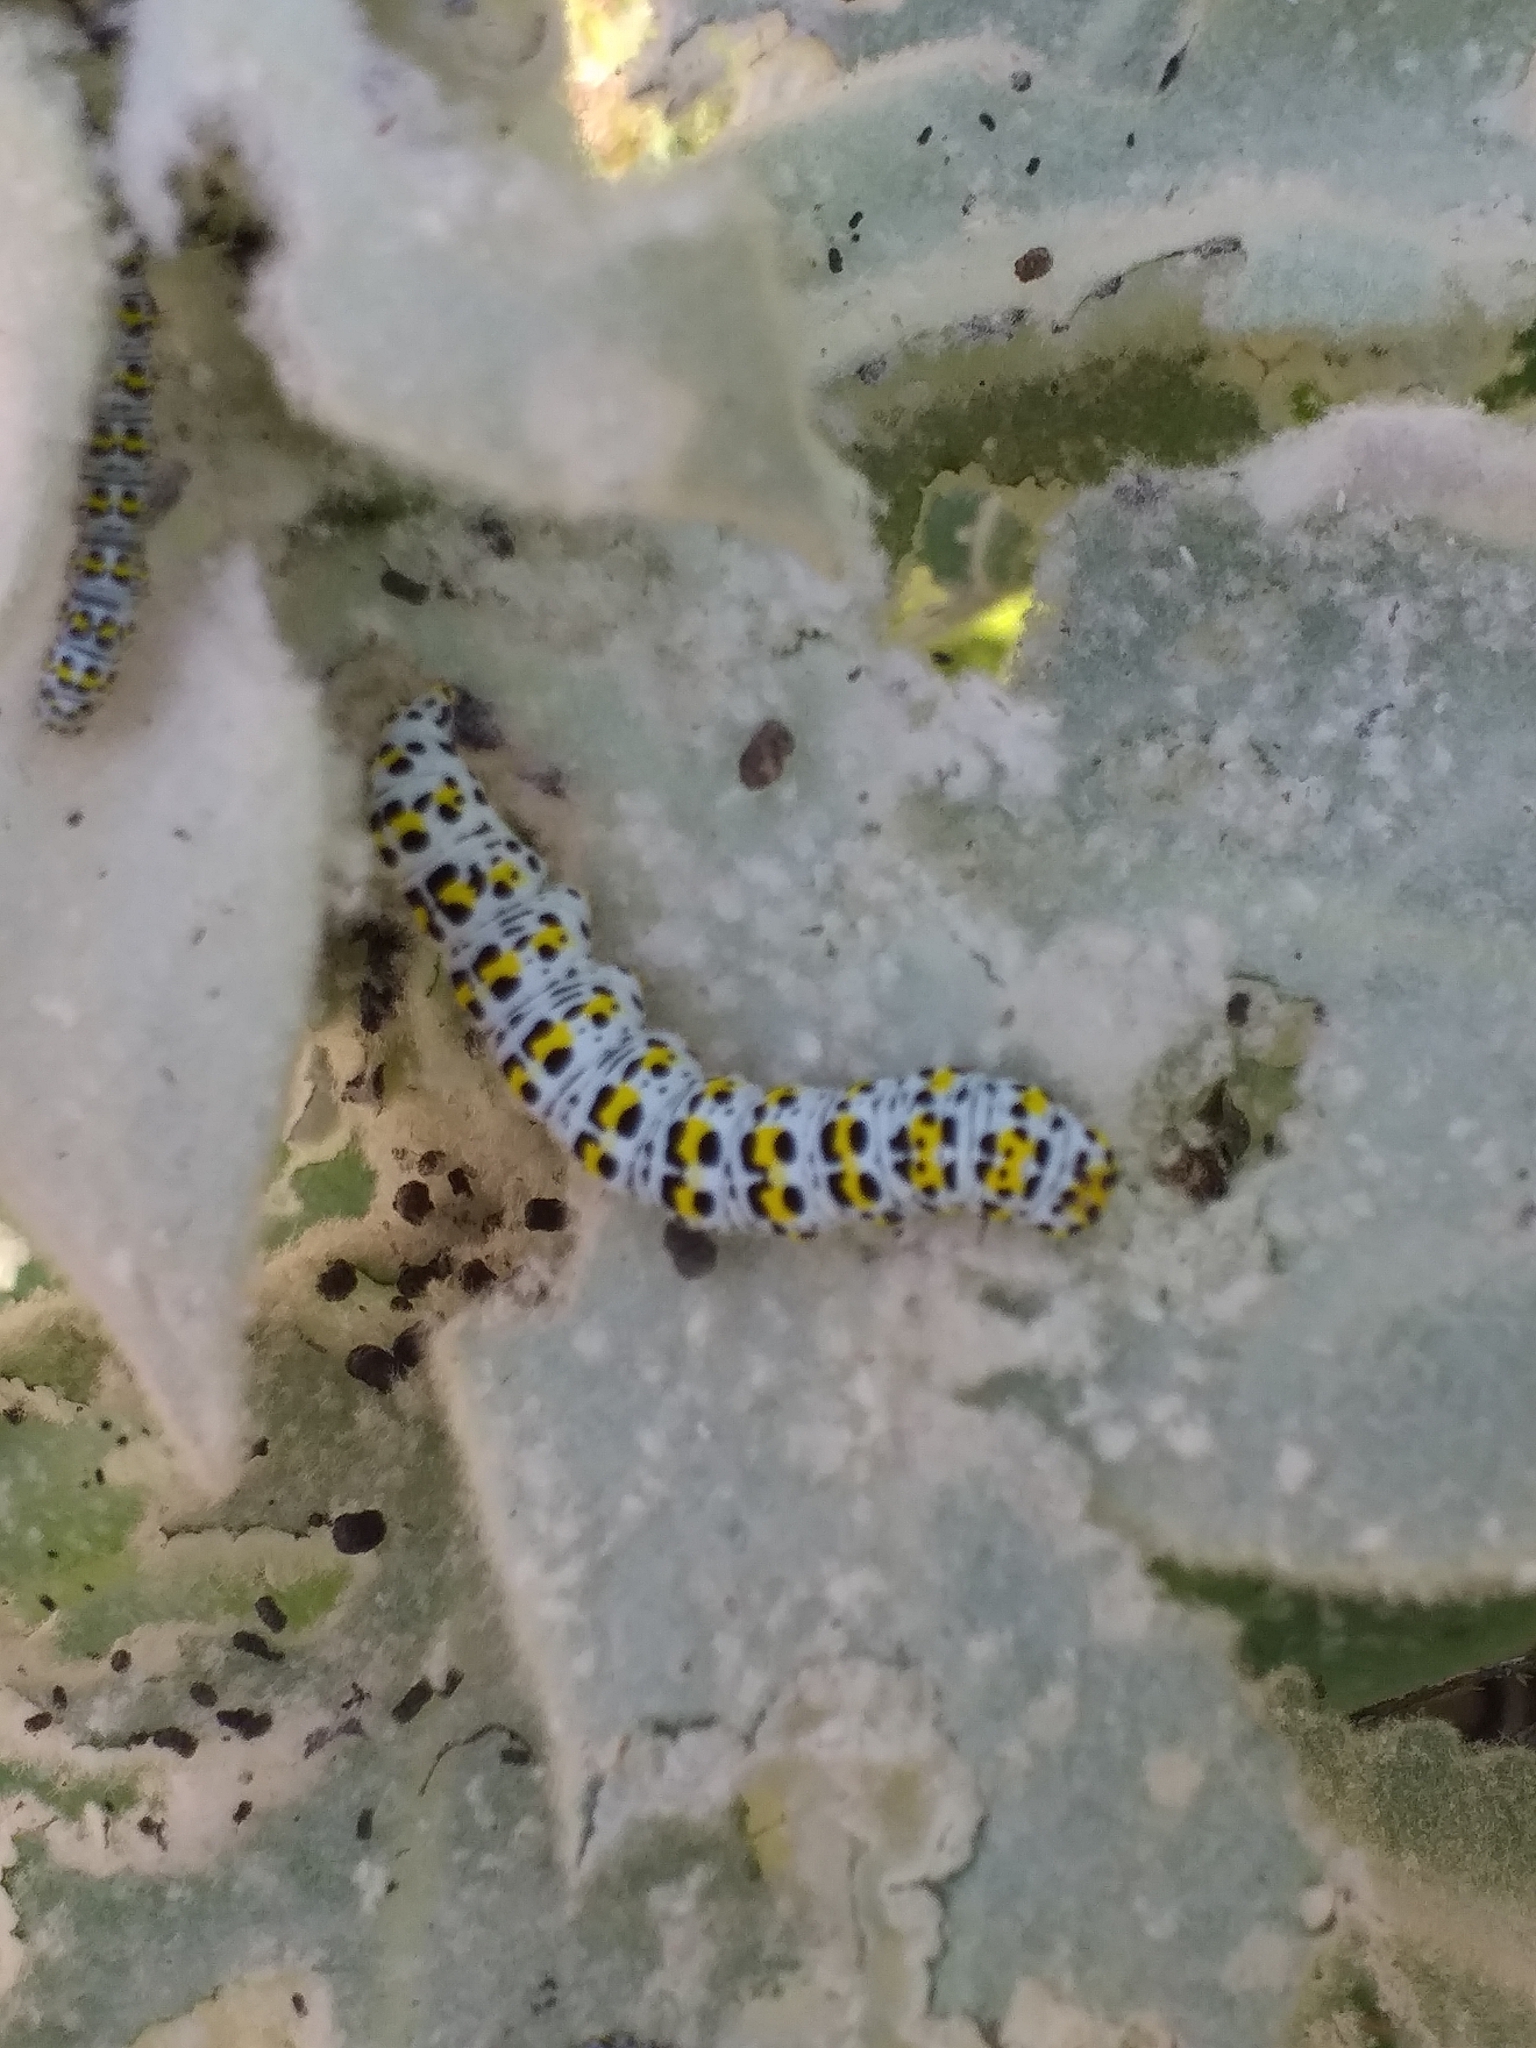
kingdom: Animalia
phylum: Arthropoda
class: Insecta
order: Lepidoptera
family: Noctuidae
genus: Cucullia
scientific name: Cucullia verbasci
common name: Mullein
